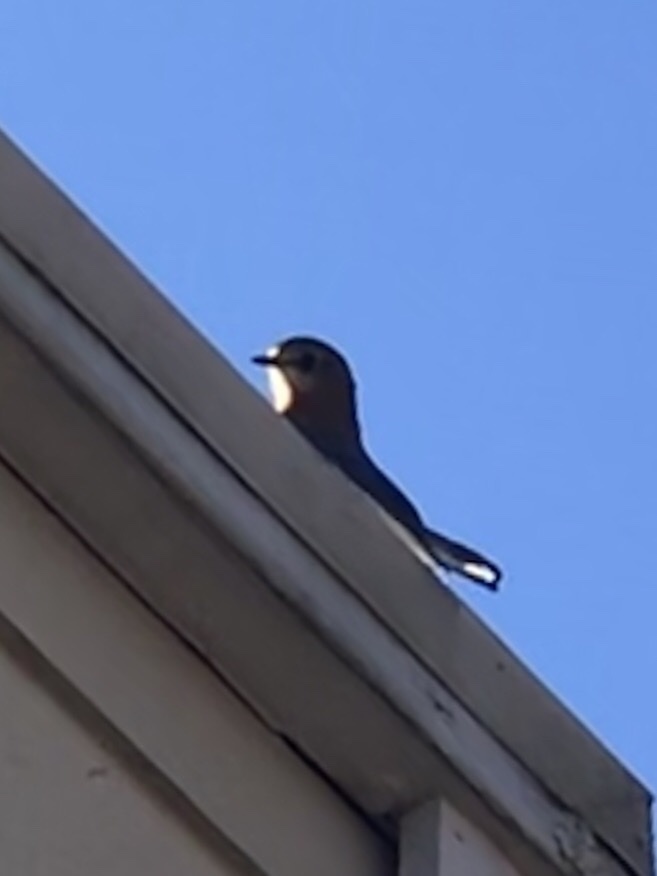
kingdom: Animalia
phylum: Chordata
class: Aves
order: Passeriformes
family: Turdidae
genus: Sialia
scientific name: Sialia sialis
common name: Eastern bluebird
